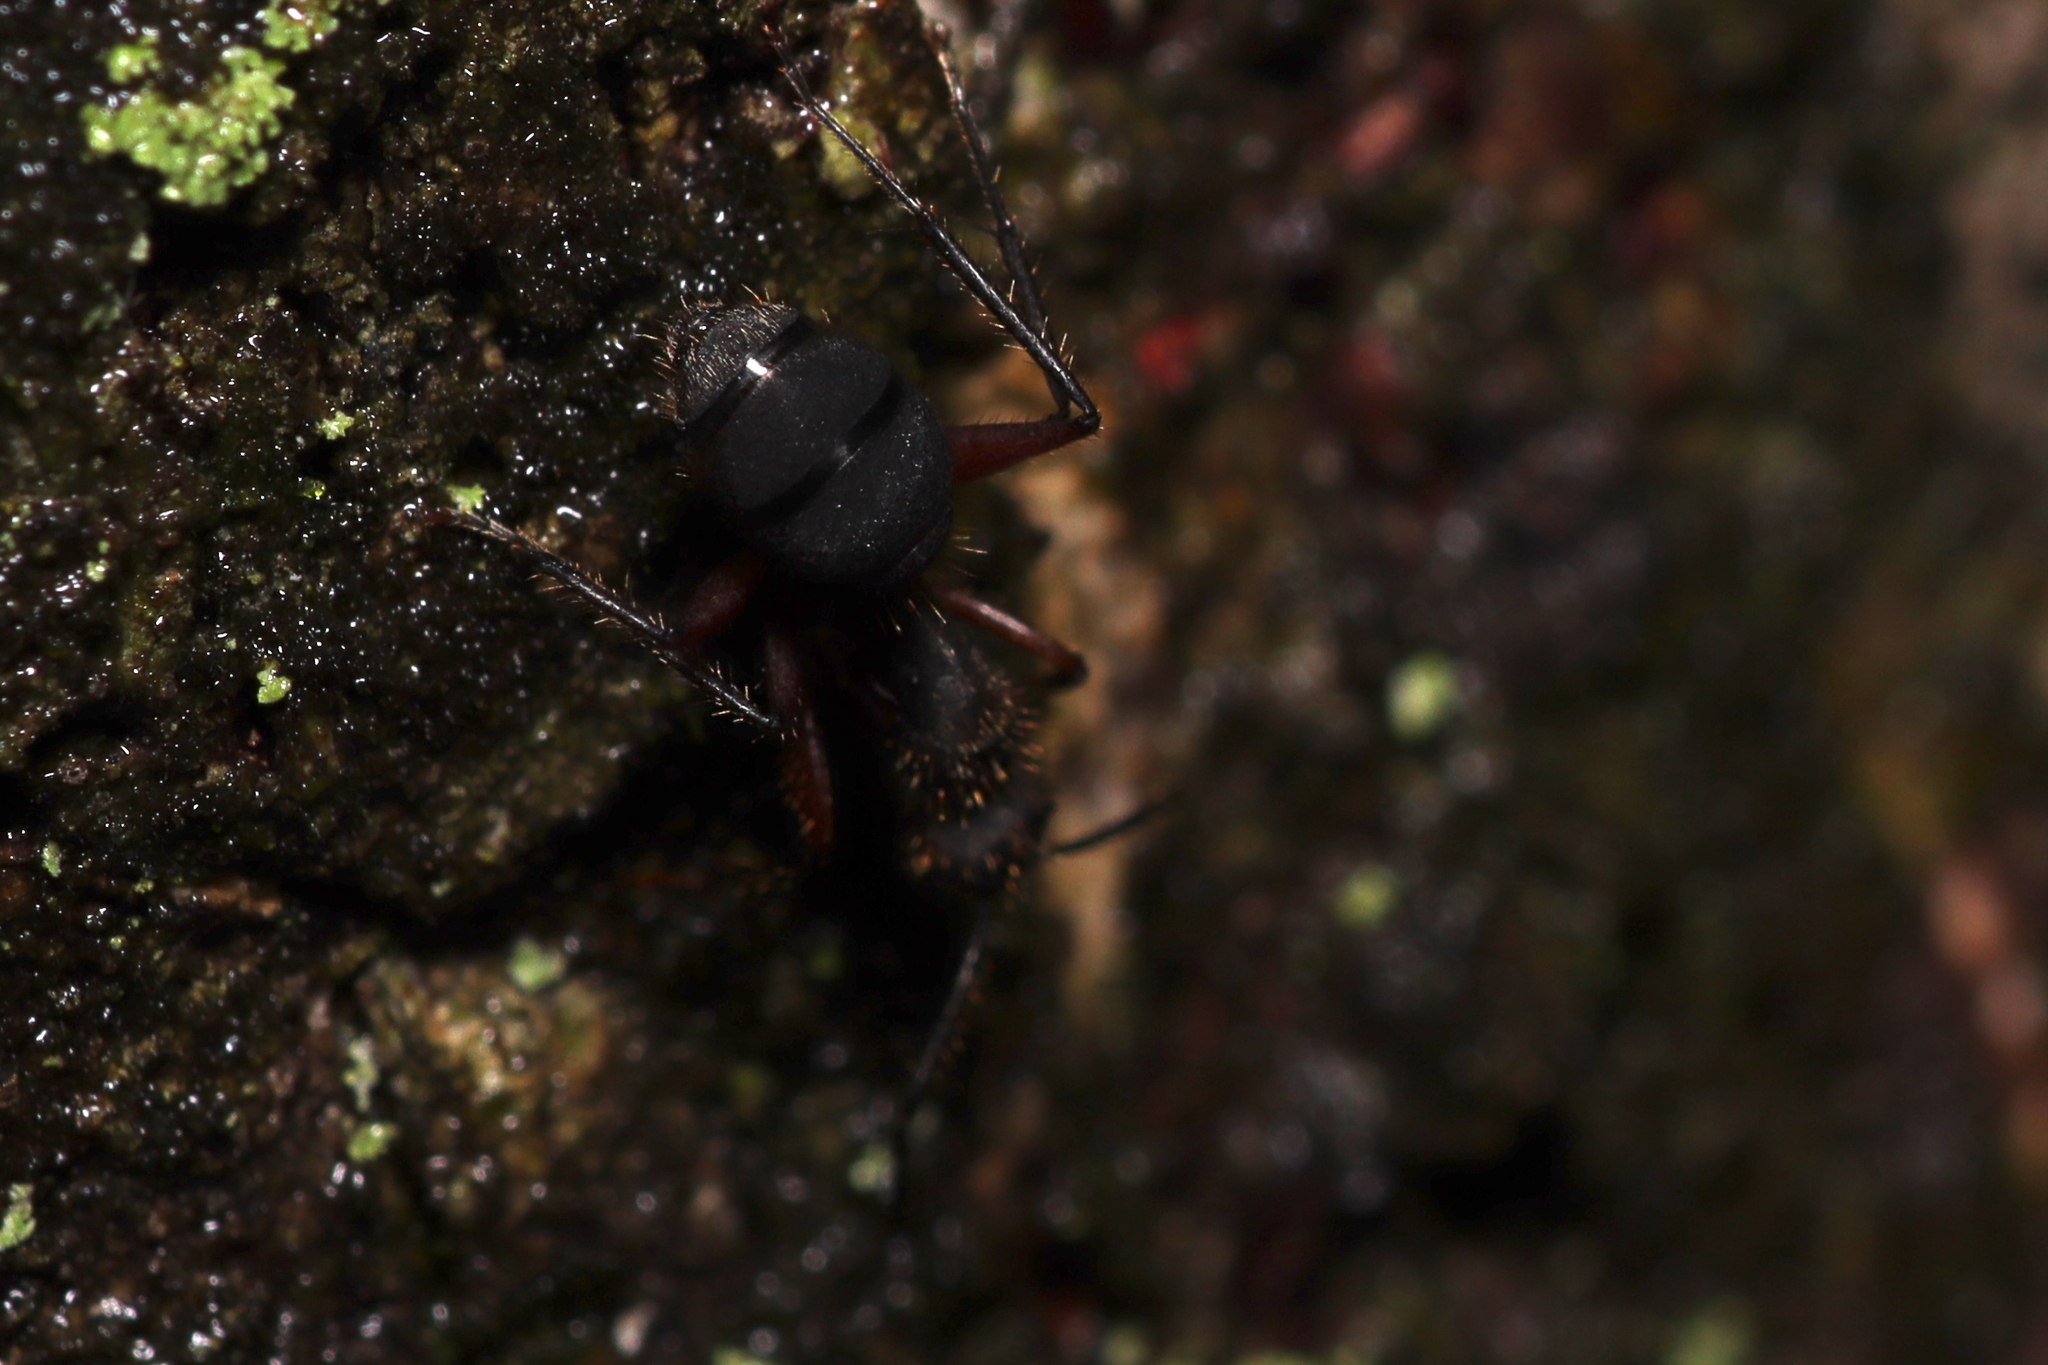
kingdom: Animalia
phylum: Arthropoda
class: Insecta
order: Hymenoptera
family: Formicidae
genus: Camponotus
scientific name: Camponotus rufipes
